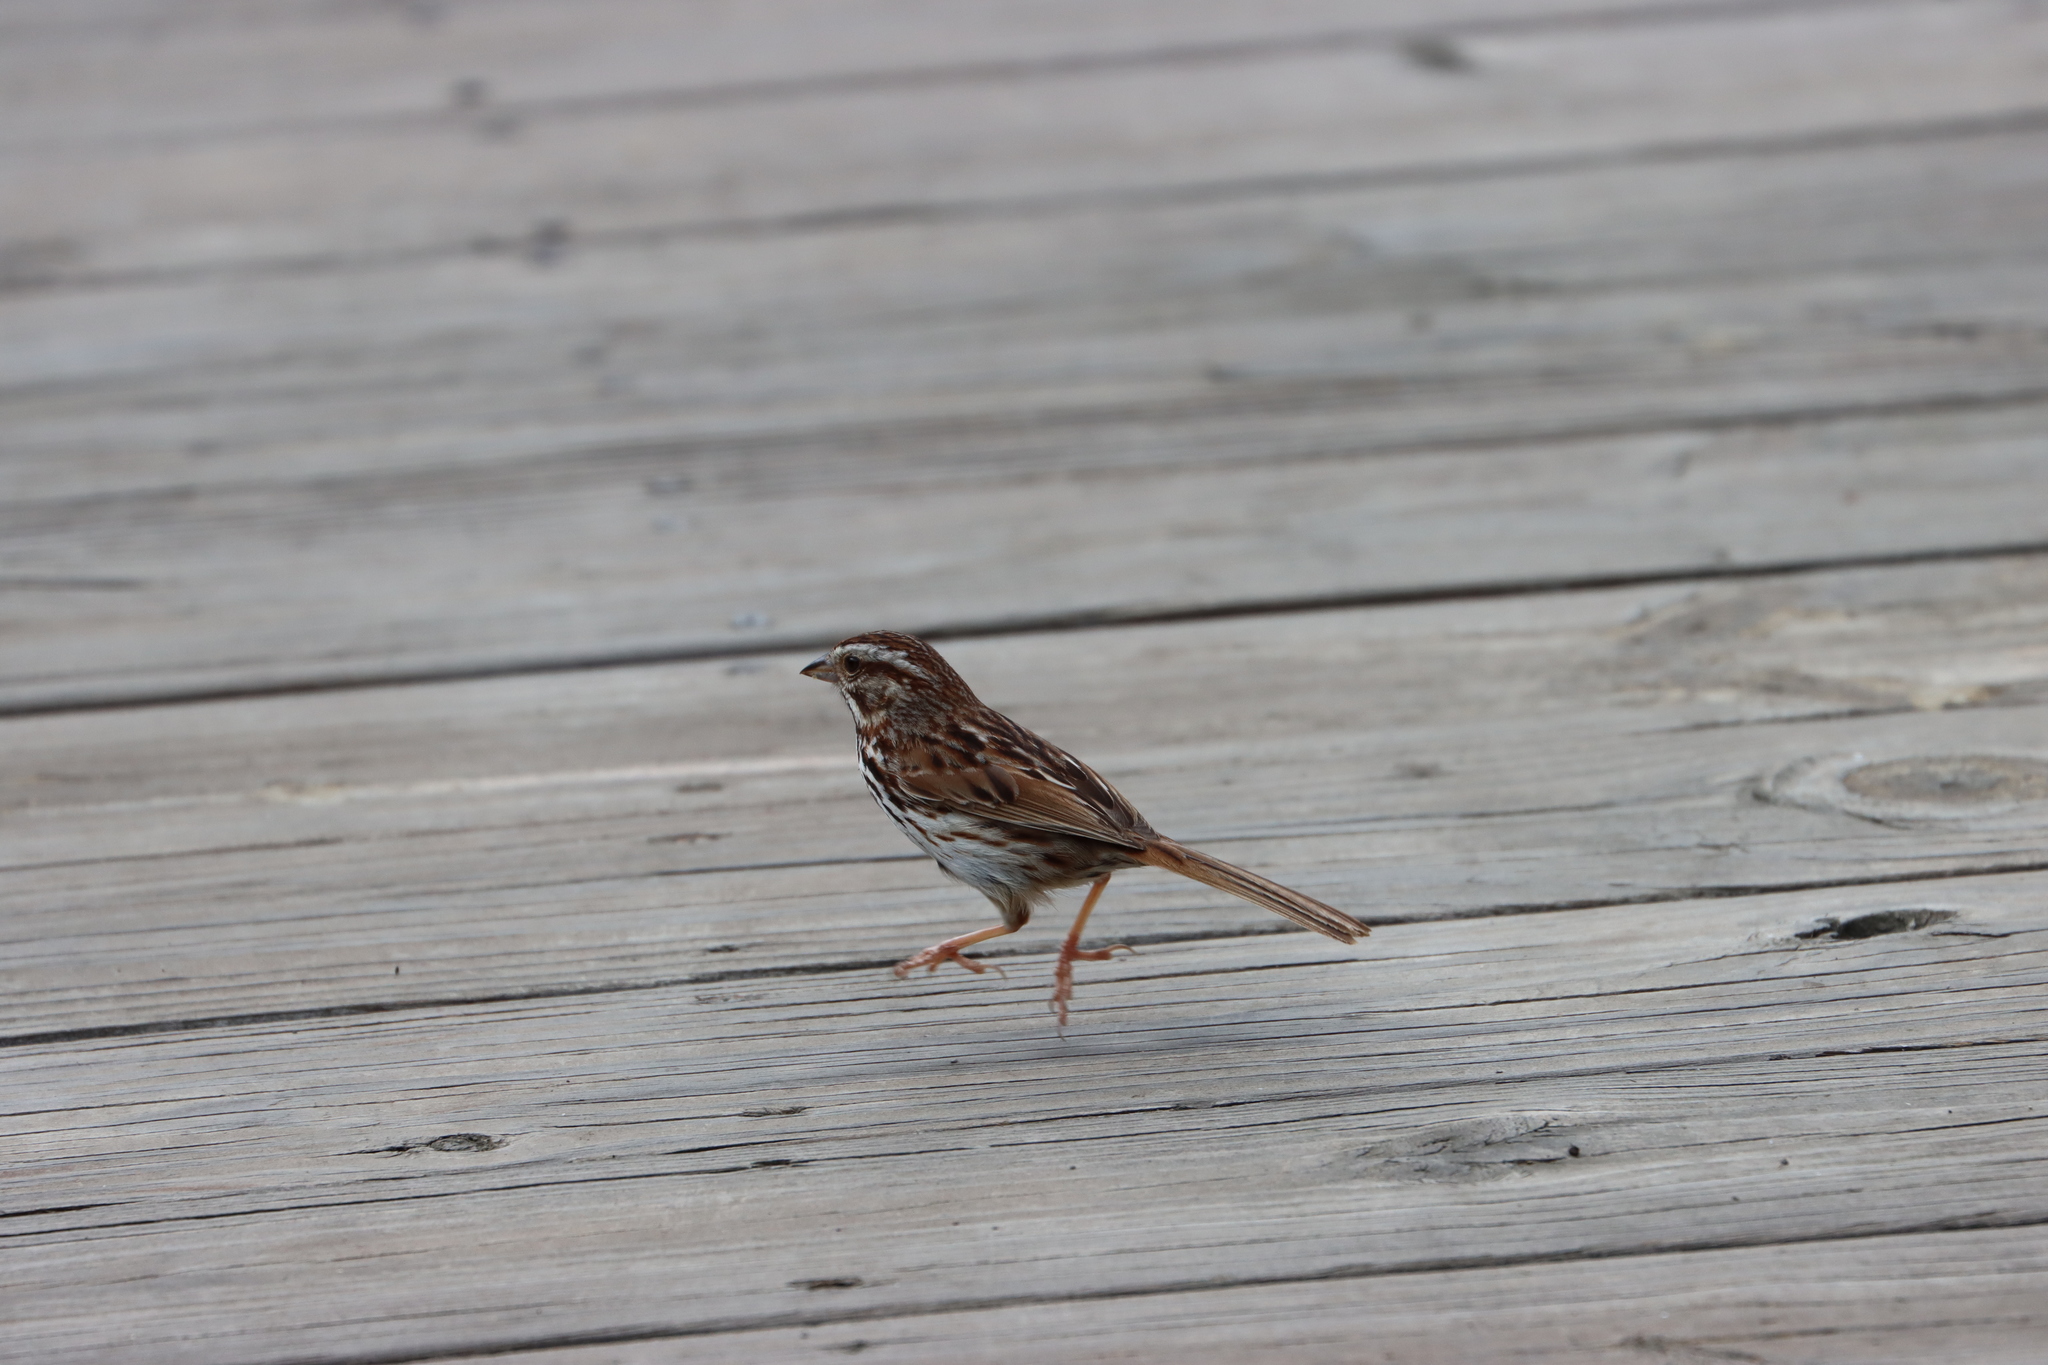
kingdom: Animalia
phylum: Chordata
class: Aves
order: Passeriformes
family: Passerellidae
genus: Melospiza
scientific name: Melospiza melodia
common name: Song sparrow
